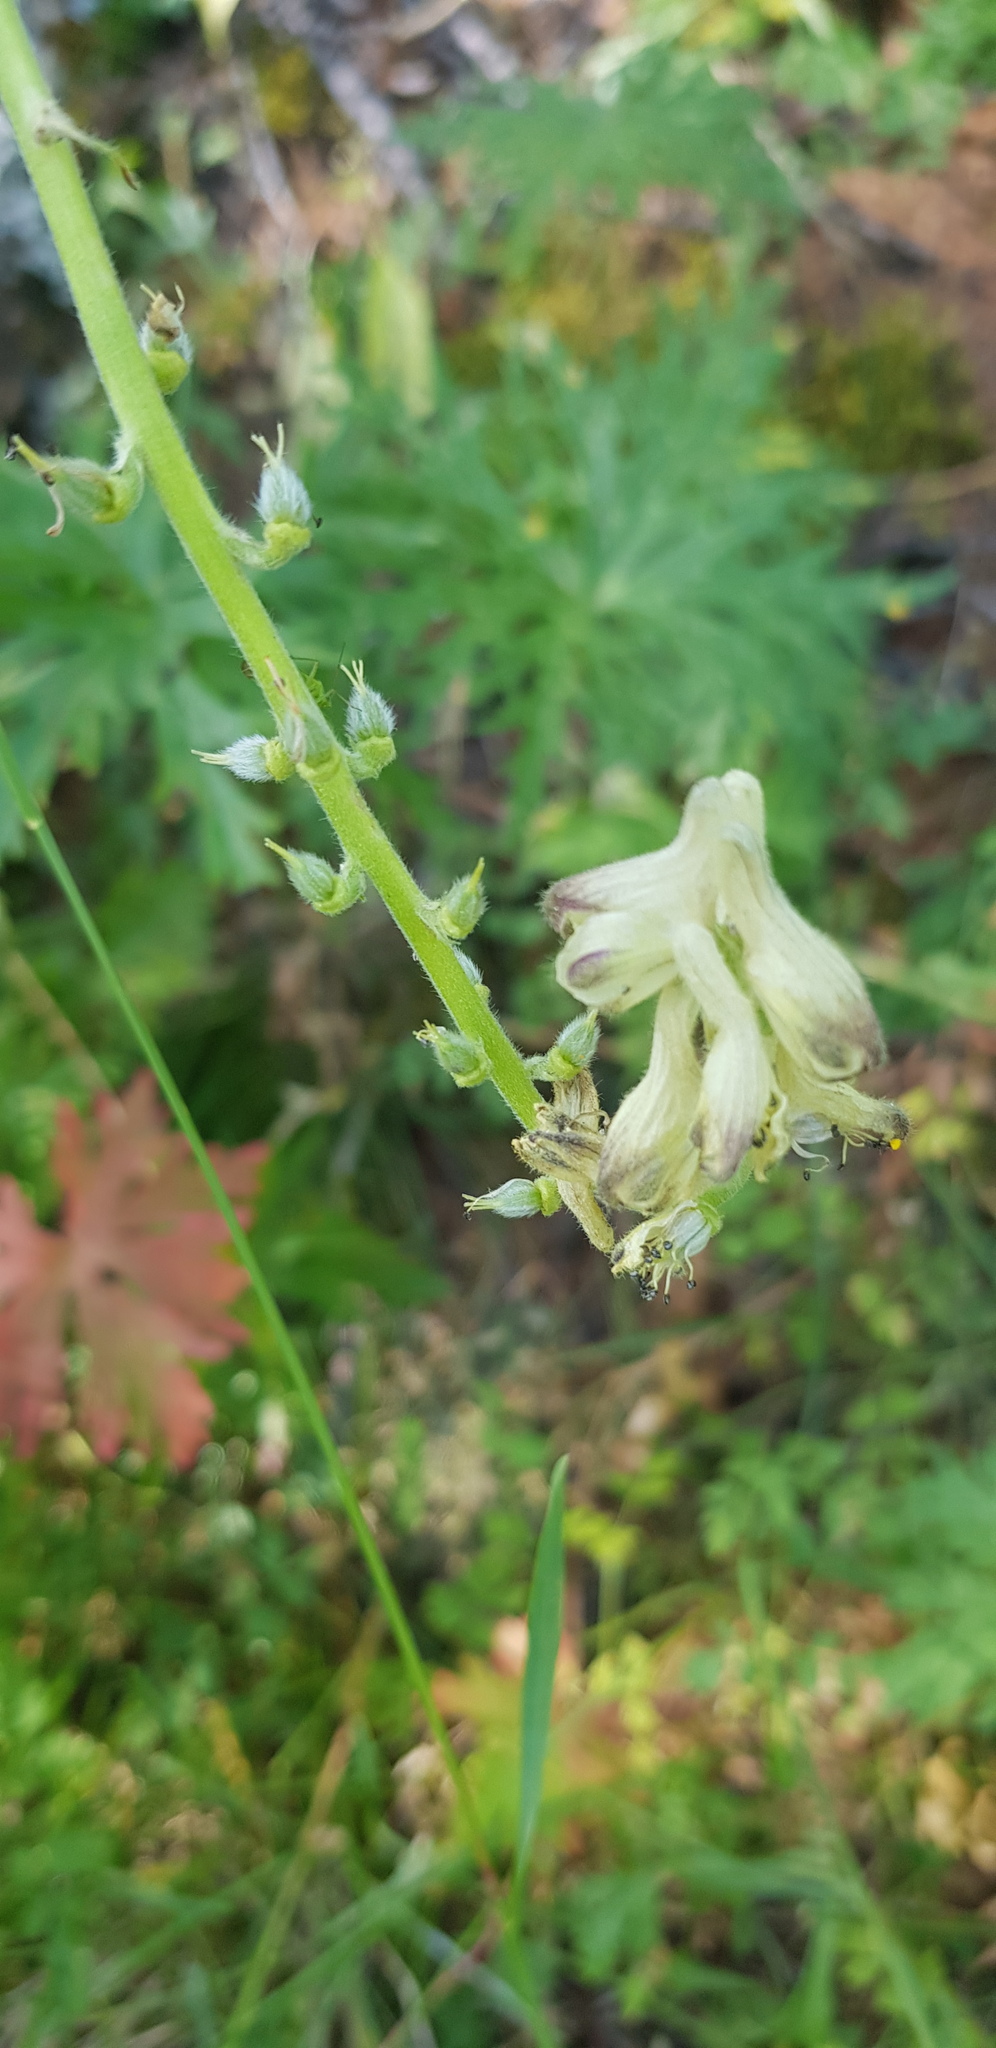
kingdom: Plantae
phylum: Tracheophyta
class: Magnoliopsida
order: Ranunculales
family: Ranunculaceae
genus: Aconitum
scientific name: Aconitum barbatum
